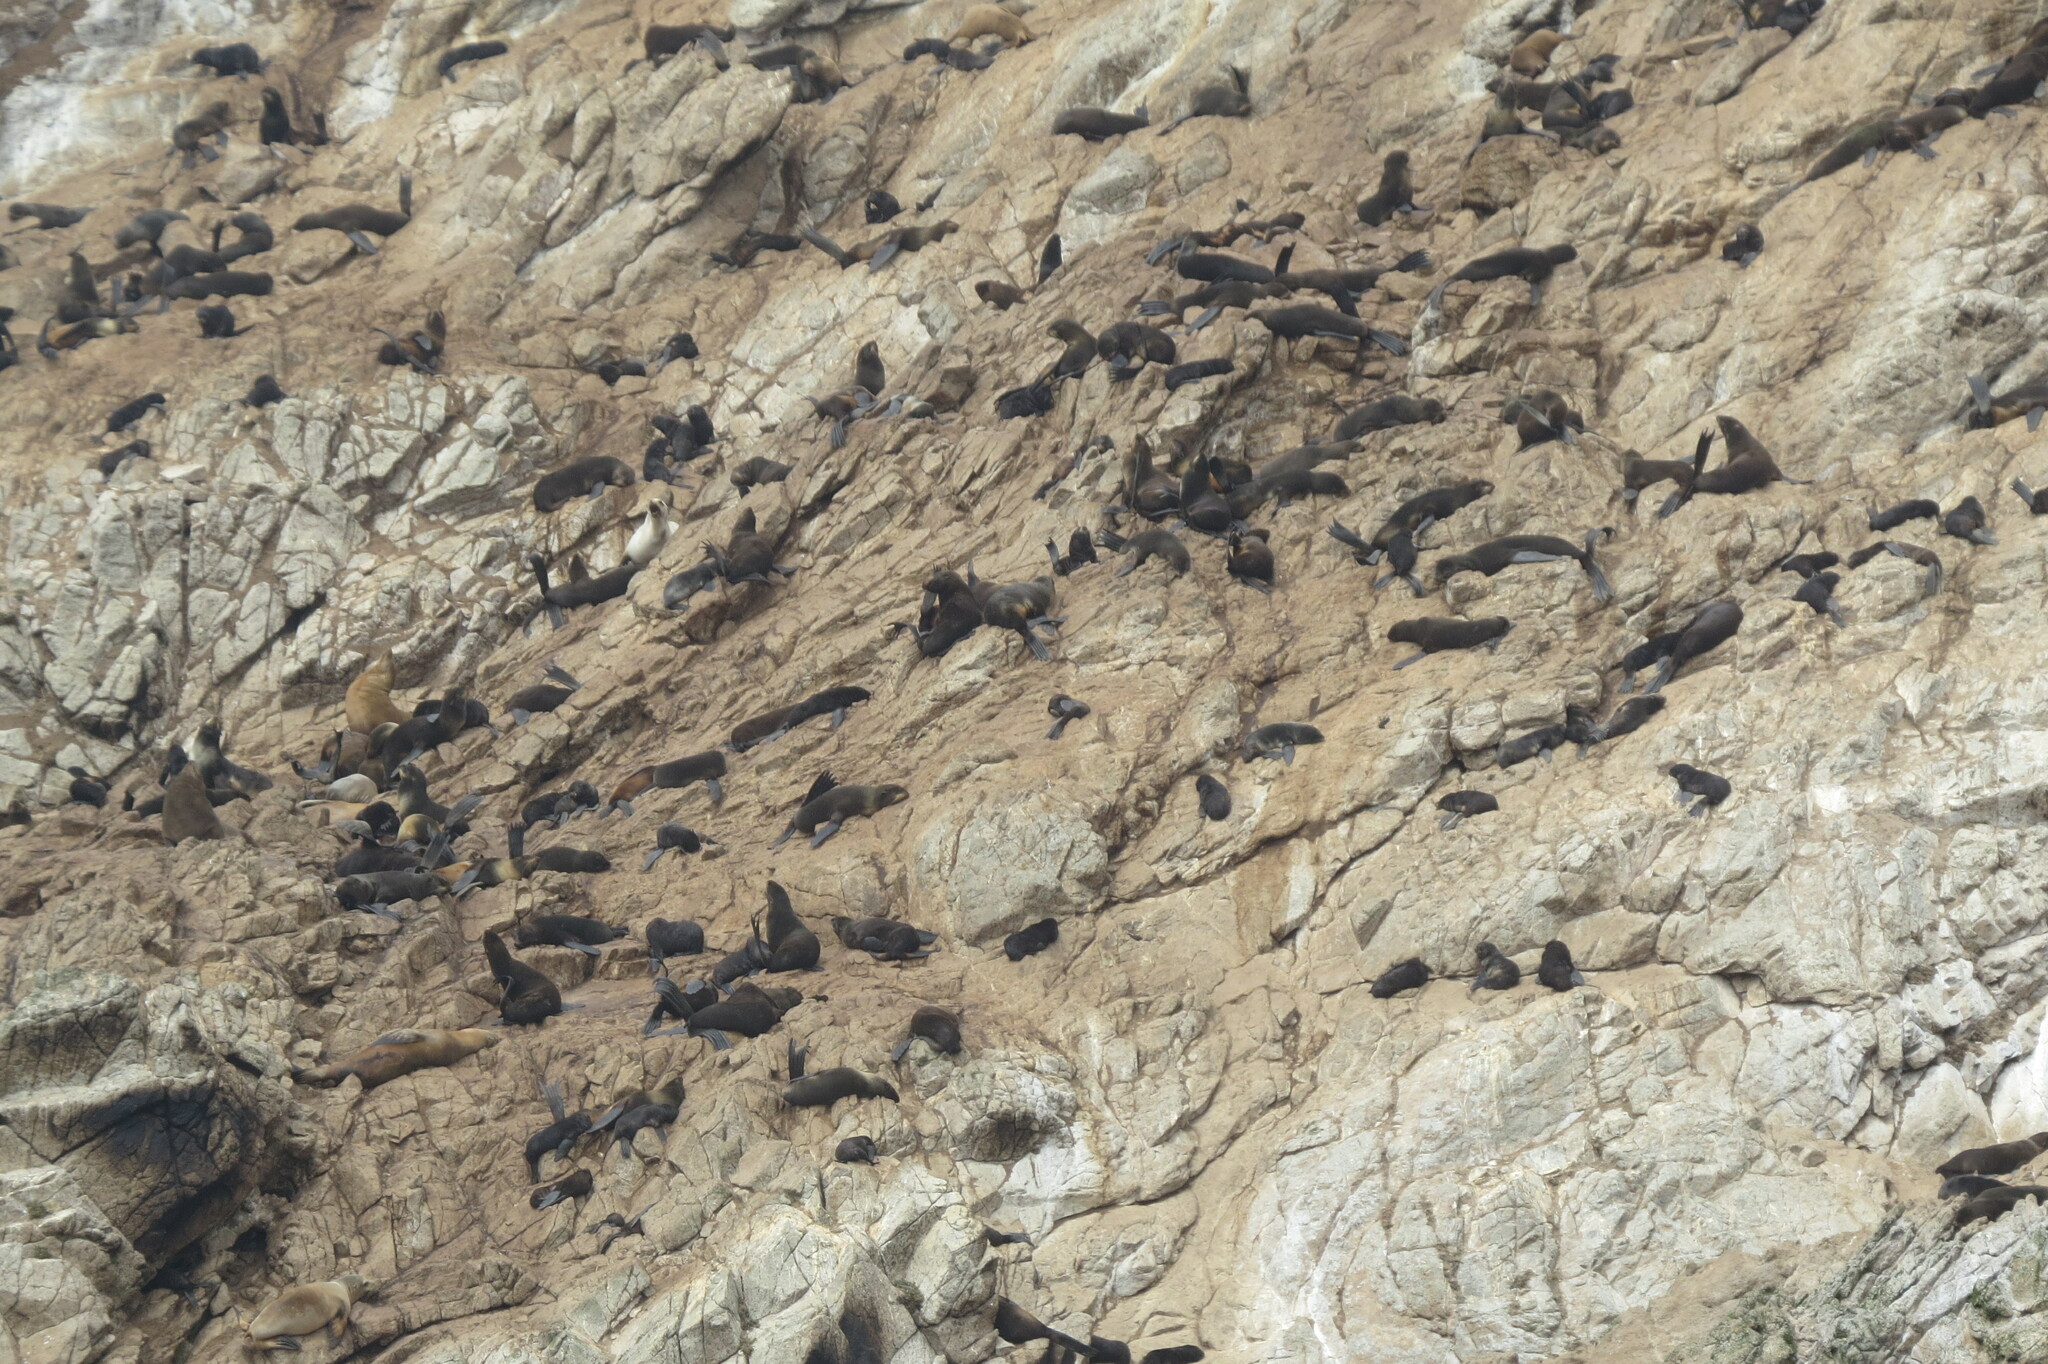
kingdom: Animalia
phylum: Chordata
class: Mammalia
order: Carnivora
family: Otariidae
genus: Callorhinus
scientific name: Callorhinus ursinus
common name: Northern fur seal
